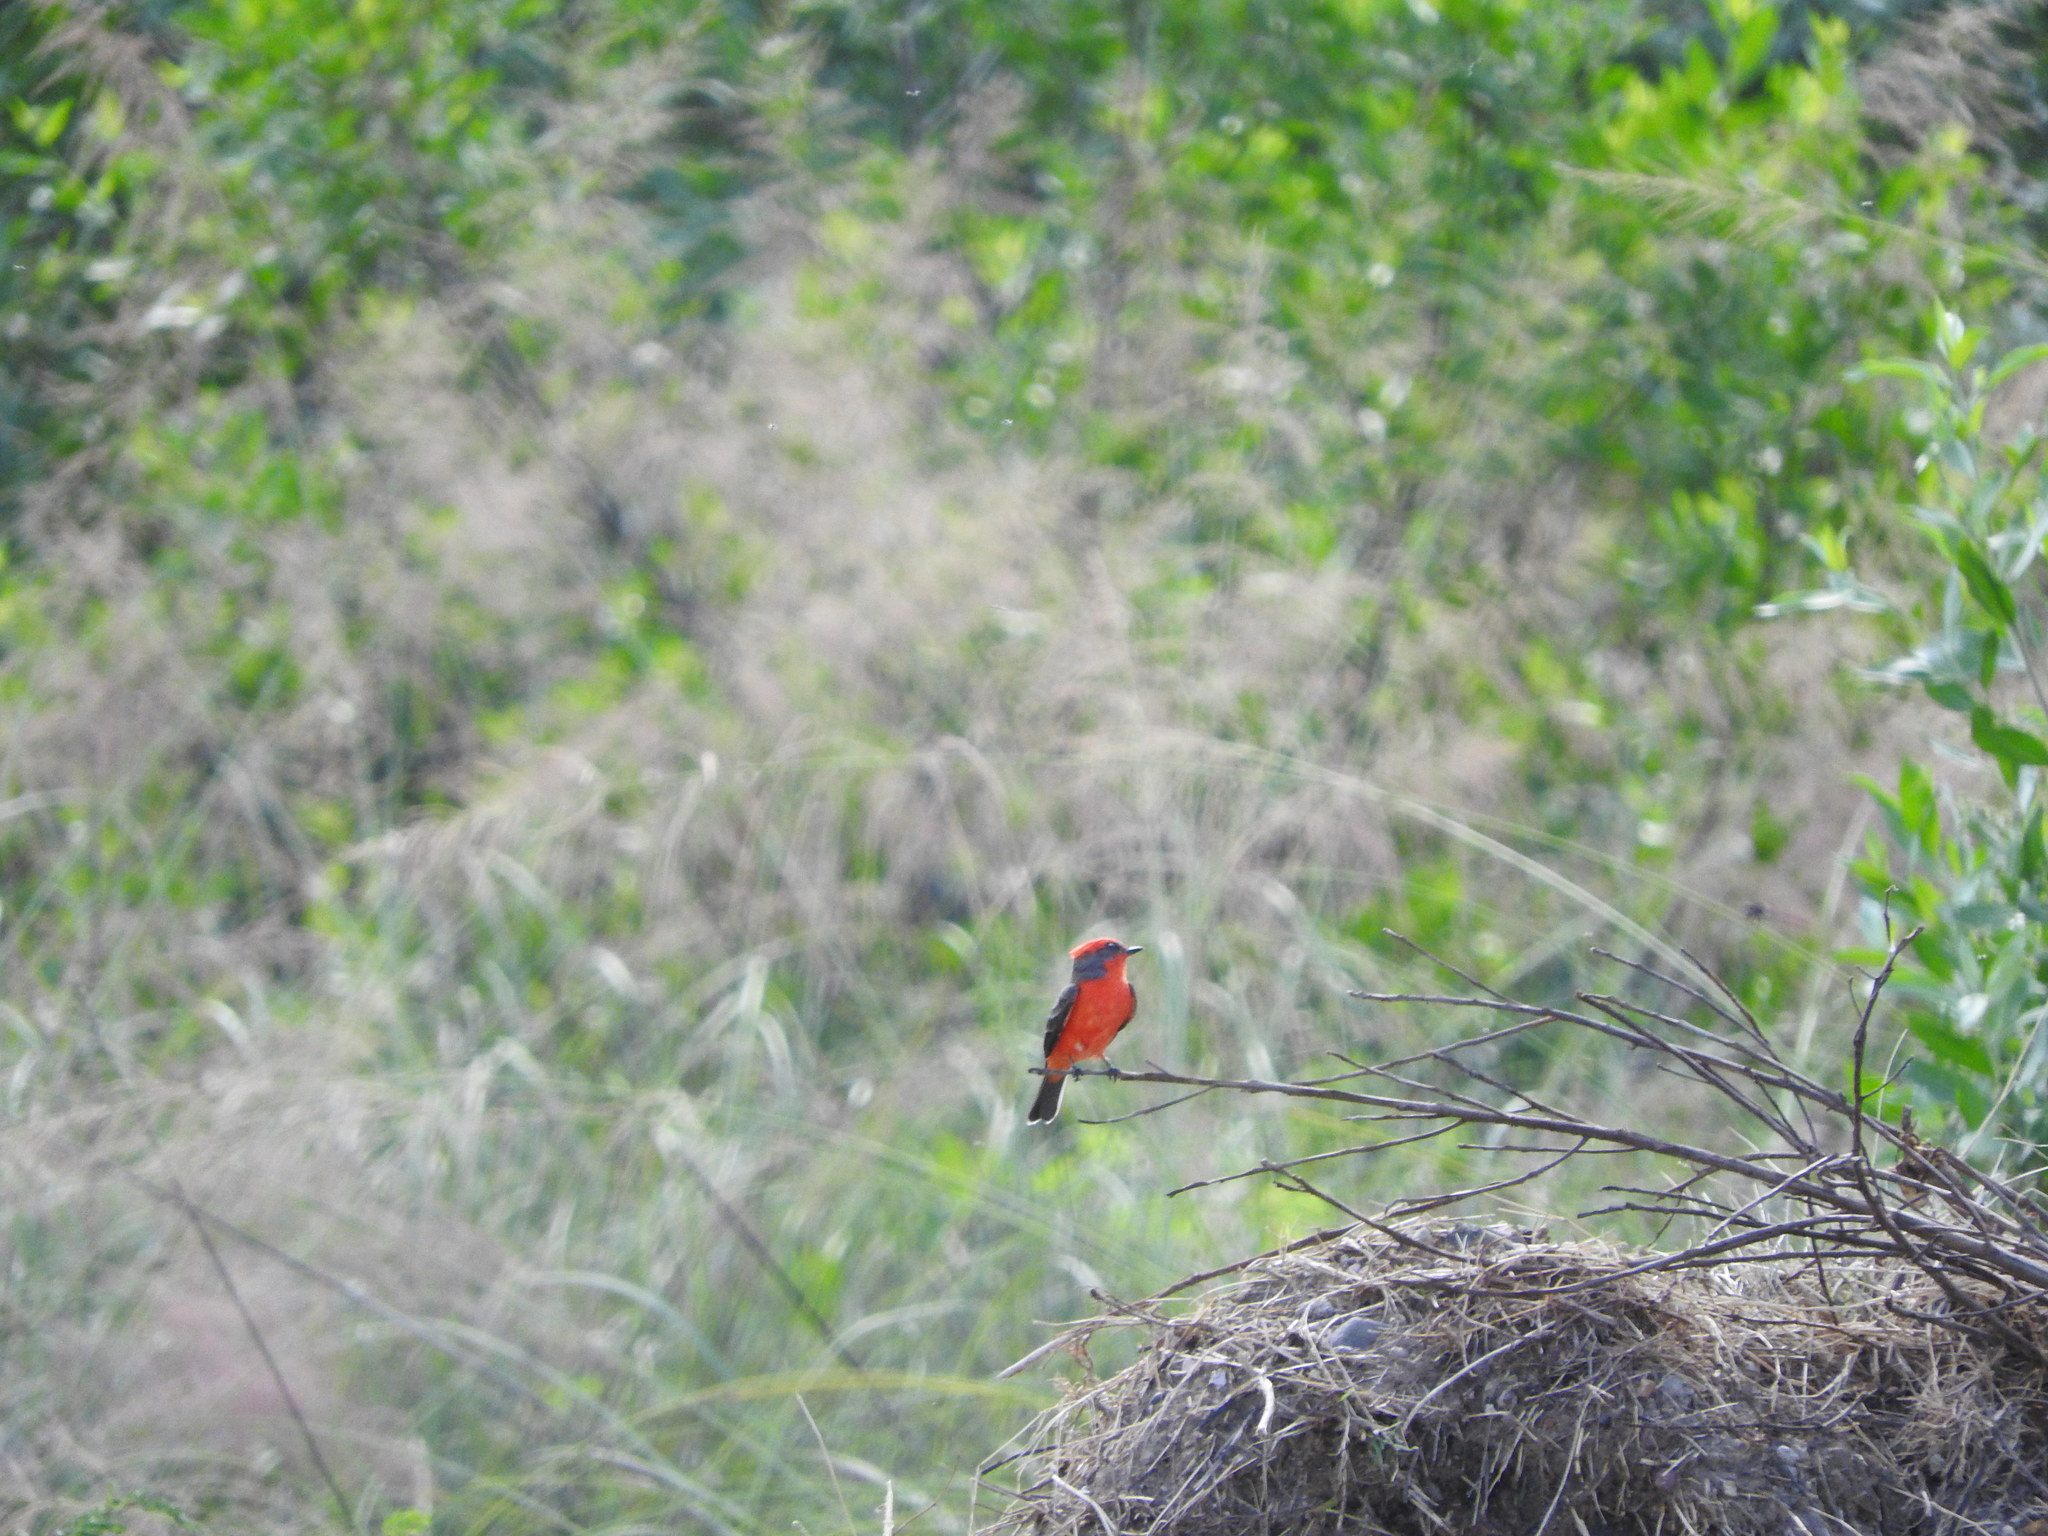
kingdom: Animalia
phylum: Chordata
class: Aves
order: Passeriformes
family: Tyrannidae
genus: Pyrocephalus
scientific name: Pyrocephalus rubinus
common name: Vermilion flycatcher
